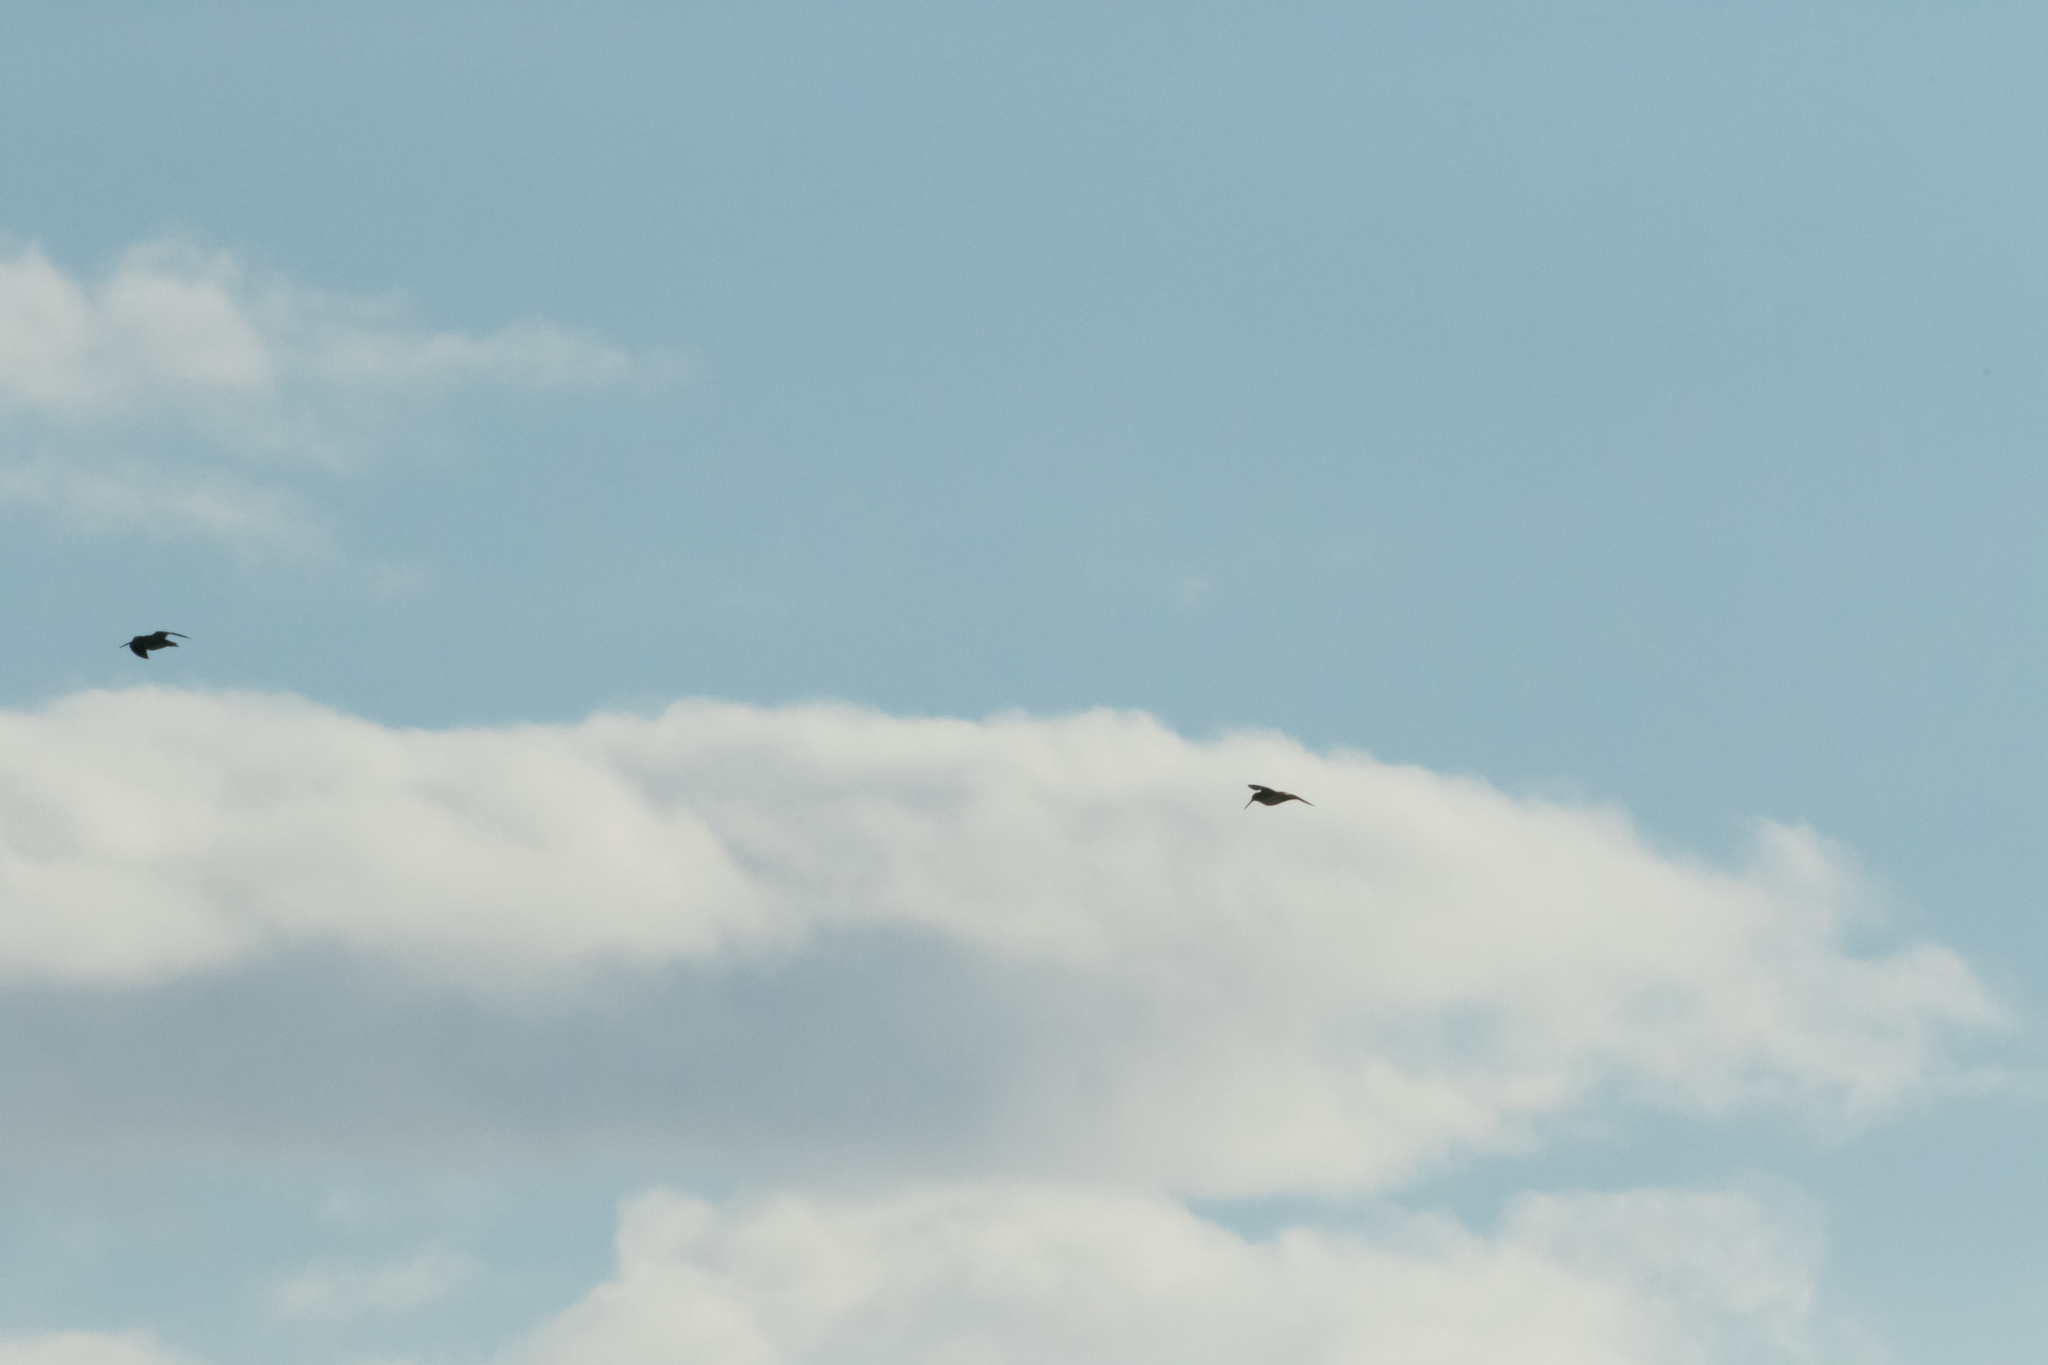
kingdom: Animalia
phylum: Chordata
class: Aves
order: Charadriiformes
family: Scolopacidae
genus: Gallinago
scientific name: Gallinago gallinago
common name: Common snipe
